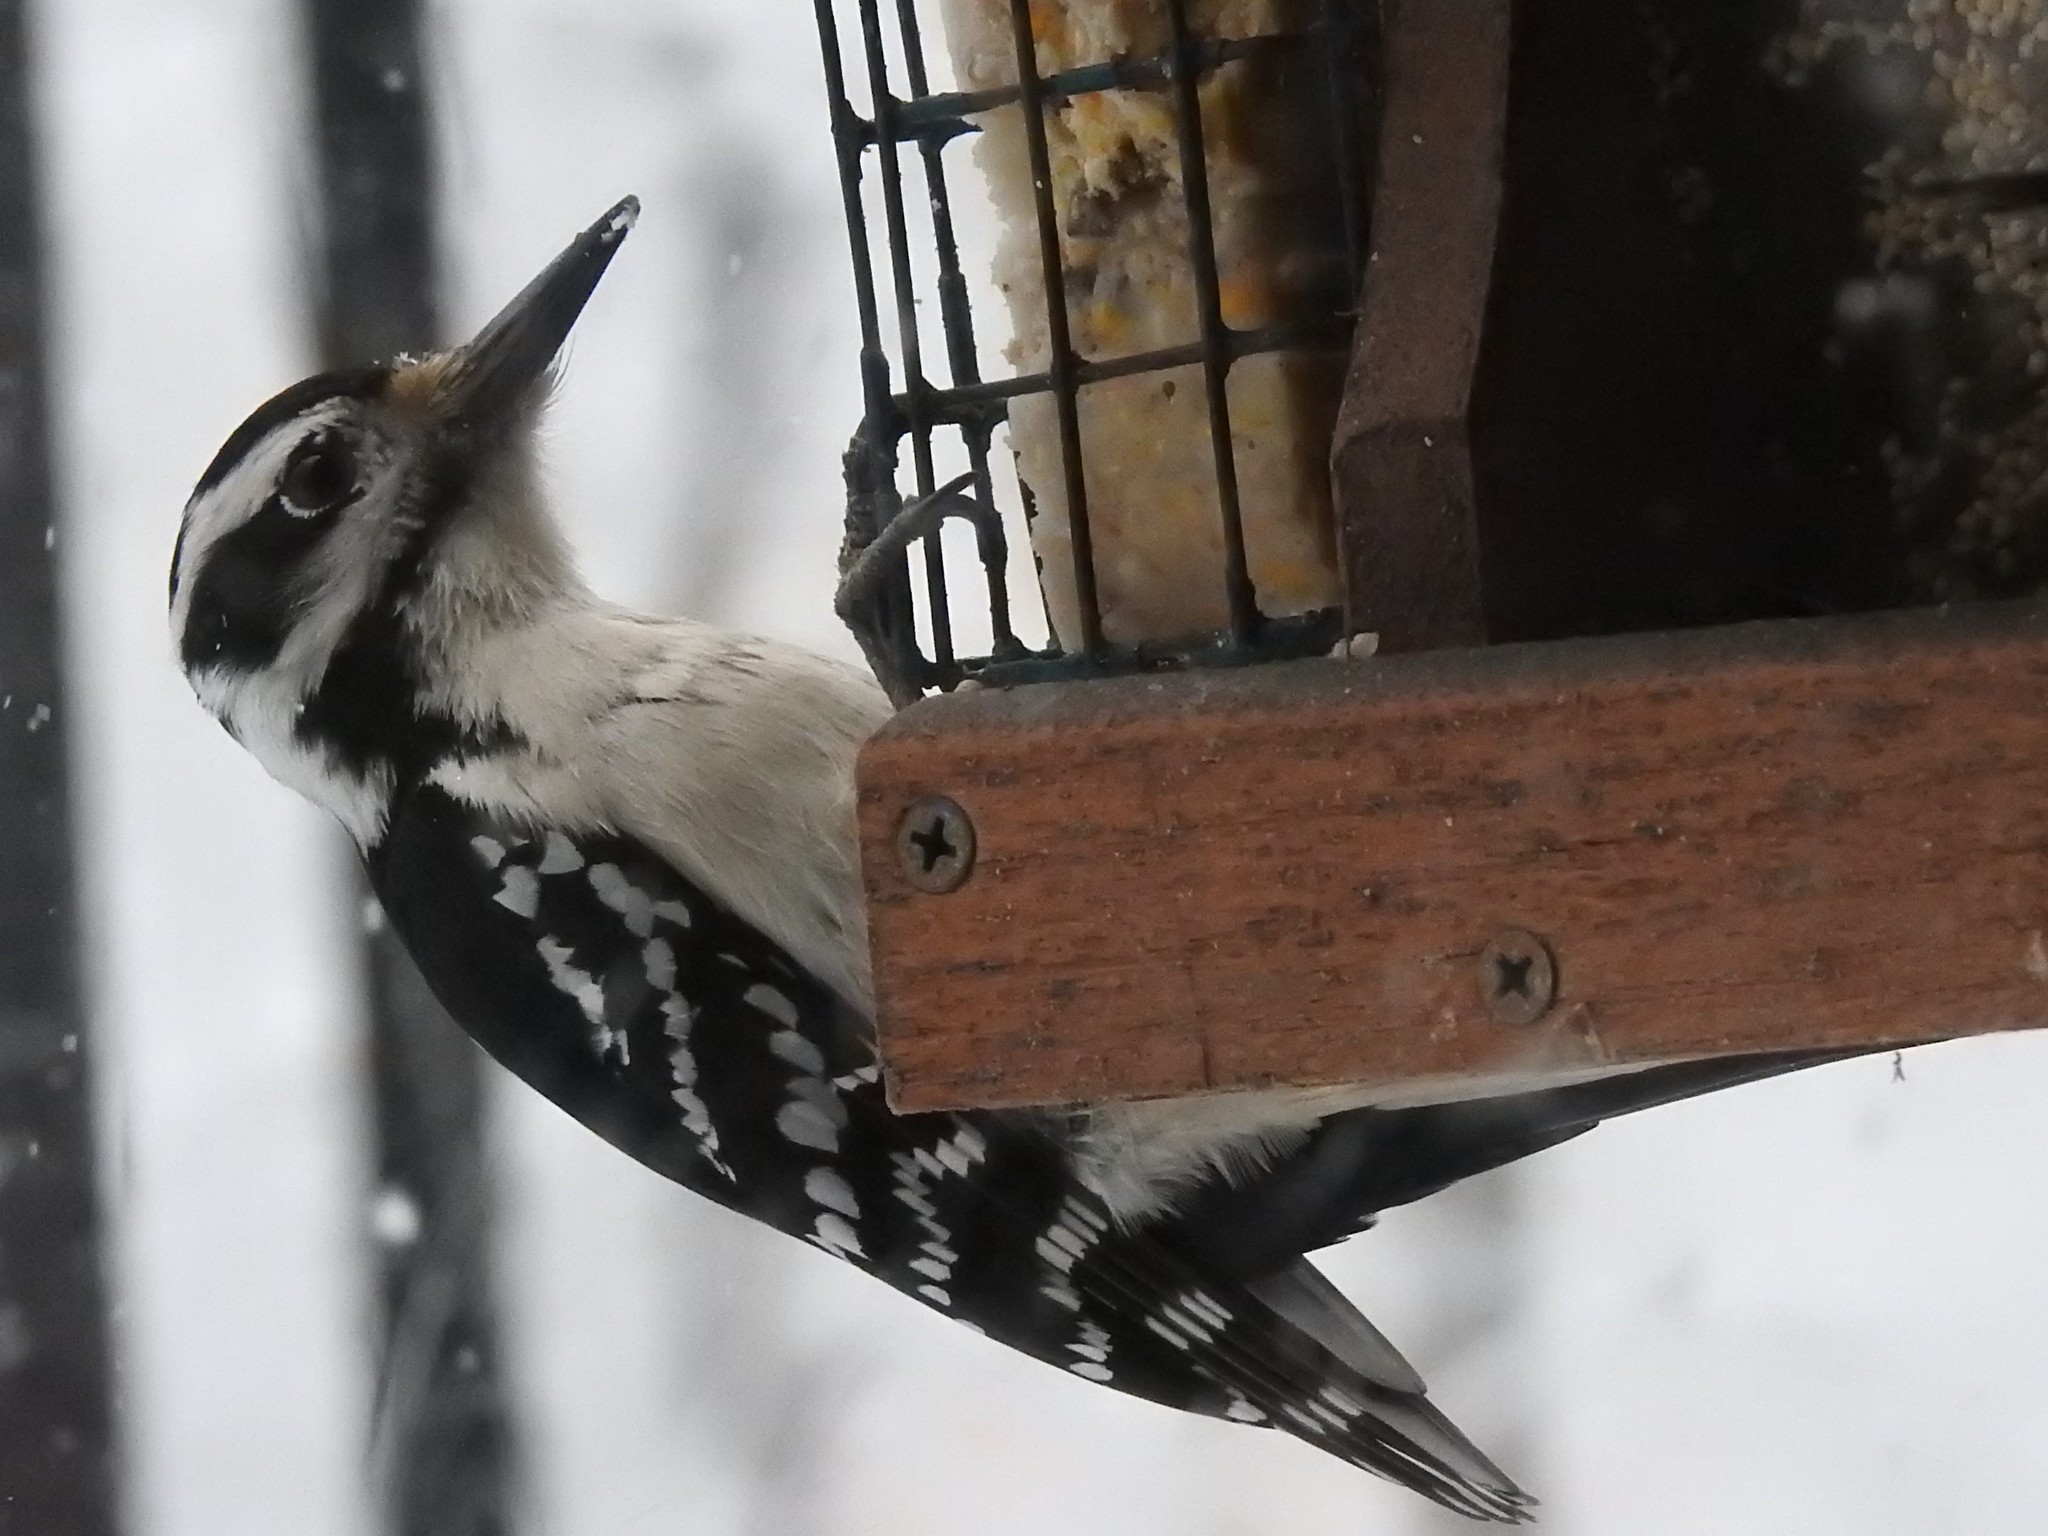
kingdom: Animalia
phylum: Chordata
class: Aves
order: Piciformes
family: Picidae
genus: Leuconotopicus
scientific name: Leuconotopicus villosus
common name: Hairy woodpecker
